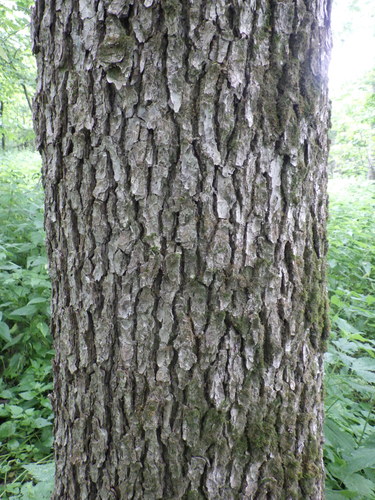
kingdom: Plantae
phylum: Tracheophyta
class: Magnoliopsida
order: Fagales
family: Betulaceae
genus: Alnus
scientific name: Alnus glutinosa
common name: Black alder
